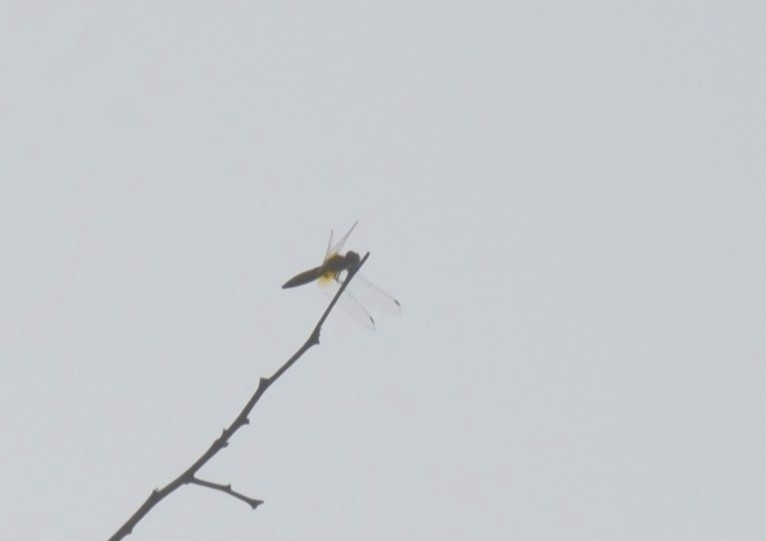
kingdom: Animalia
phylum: Arthropoda
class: Insecta
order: Odonata
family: Libellulidae
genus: Aethriamanta
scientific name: Aethriamanta brevipennis
